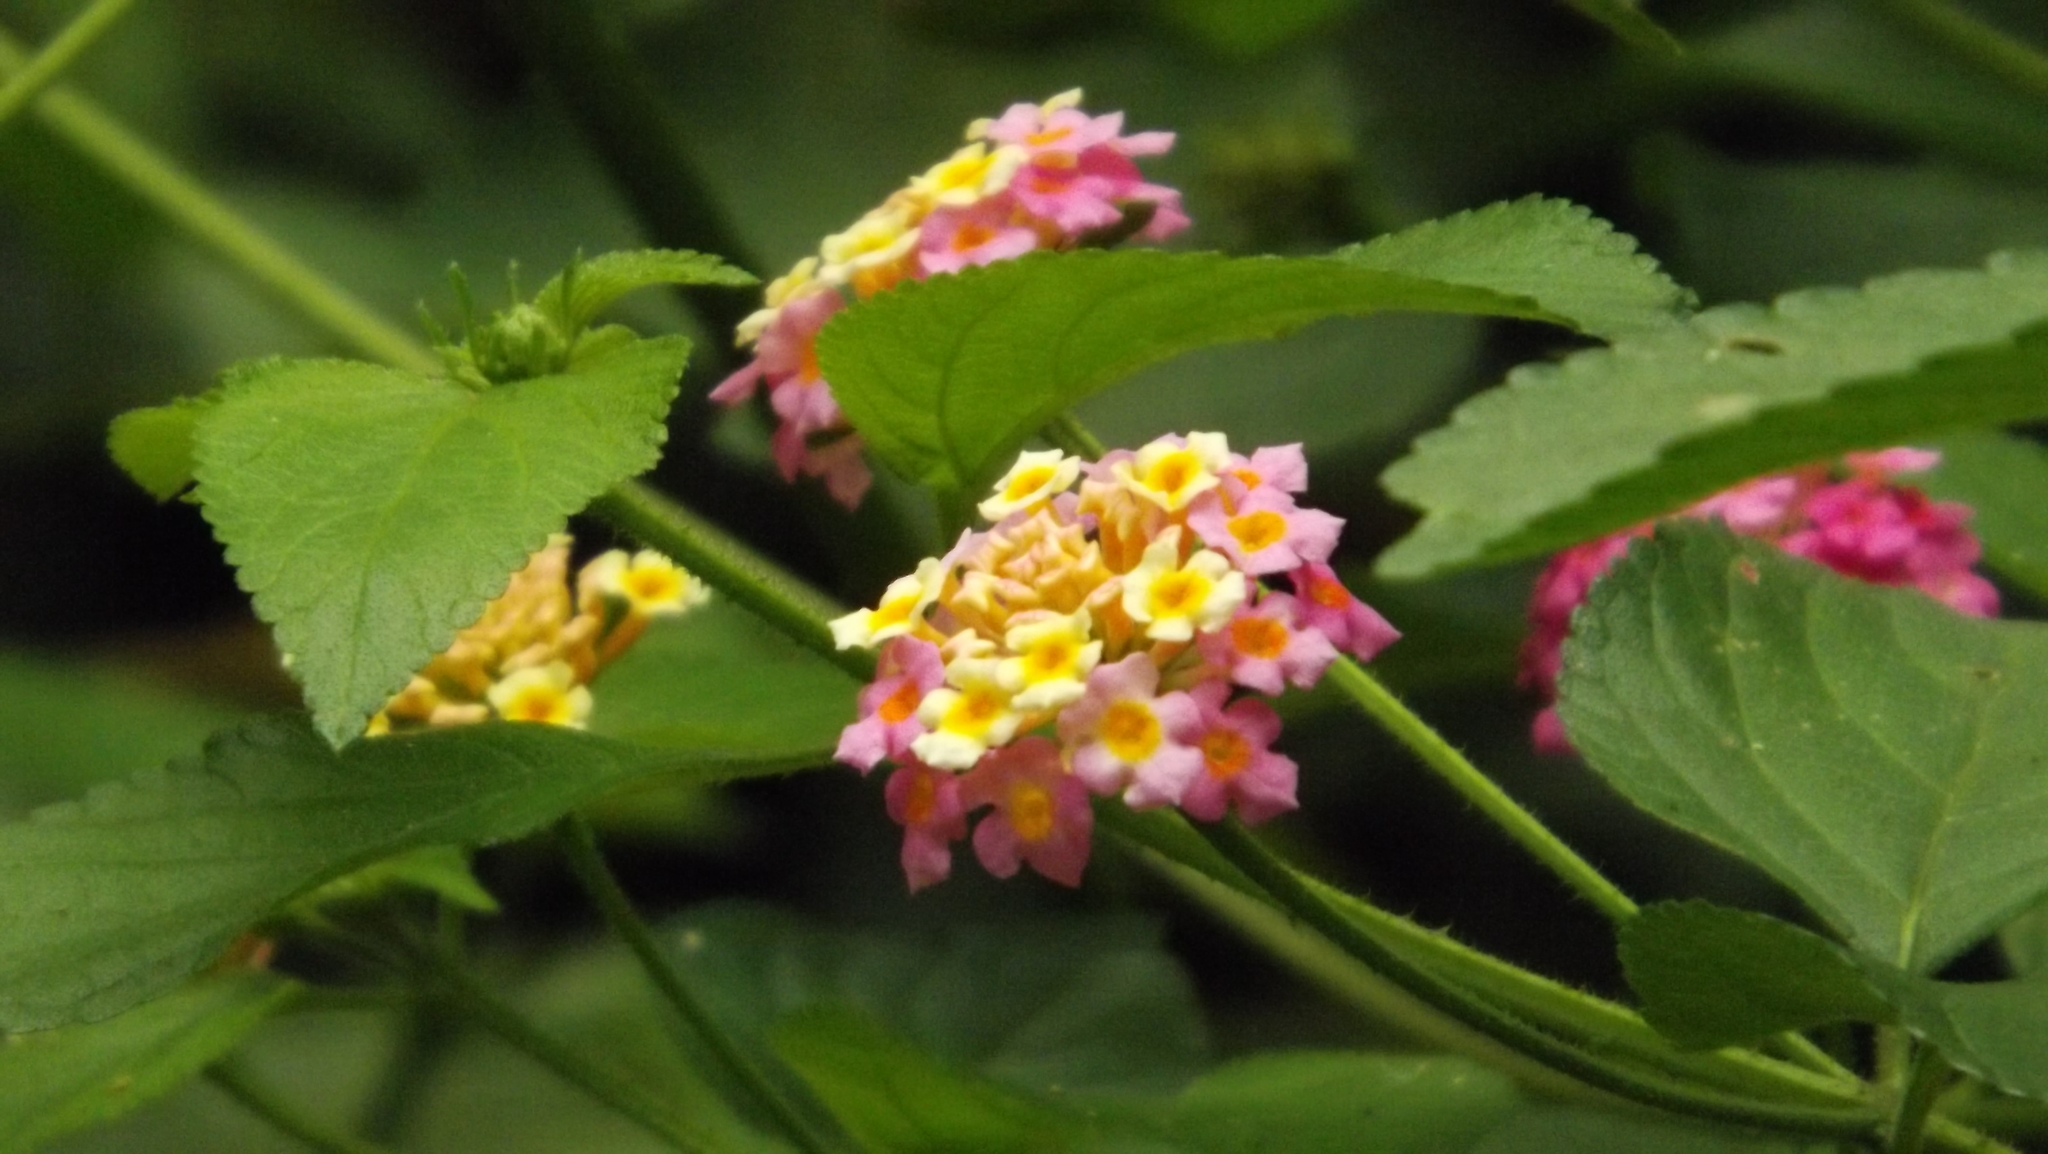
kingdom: Plantae
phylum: Tracheophyta
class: Magnoliopsida
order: Lamiales
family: Verbenaceae
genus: Lantana
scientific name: Lantana camara
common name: Lantana
